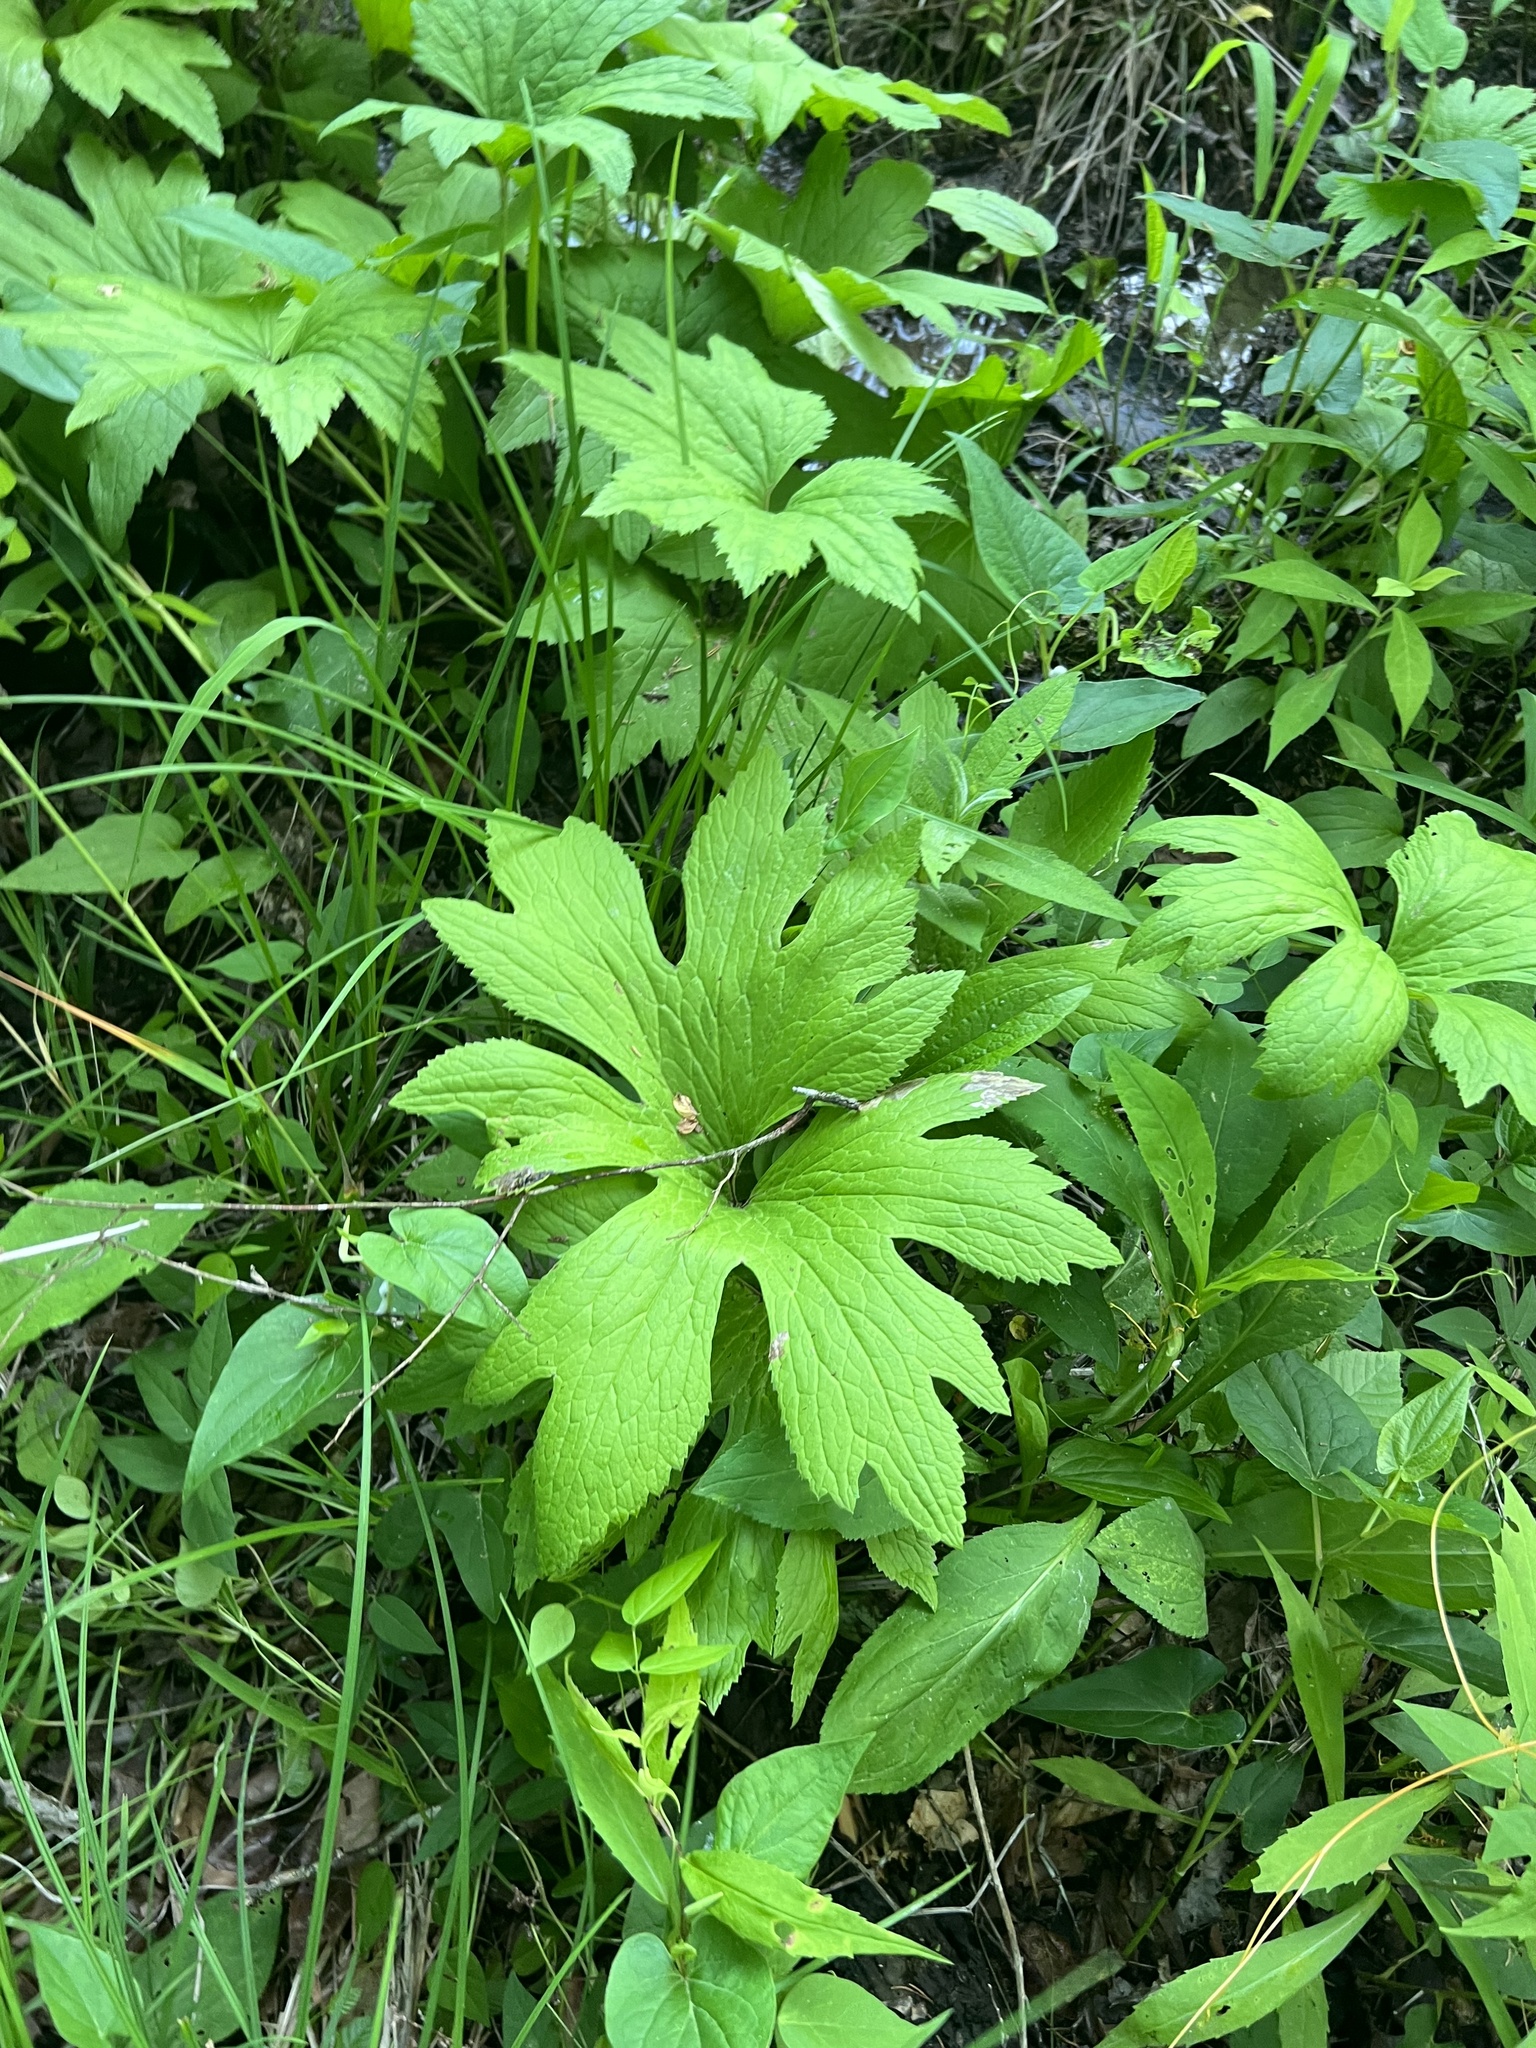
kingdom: Plantae
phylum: Tracheophyta
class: Magnoliopsida
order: Ranunculales
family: Ranunculaceae
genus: Trautvetteria
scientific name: Trautvetteria carolinensis
